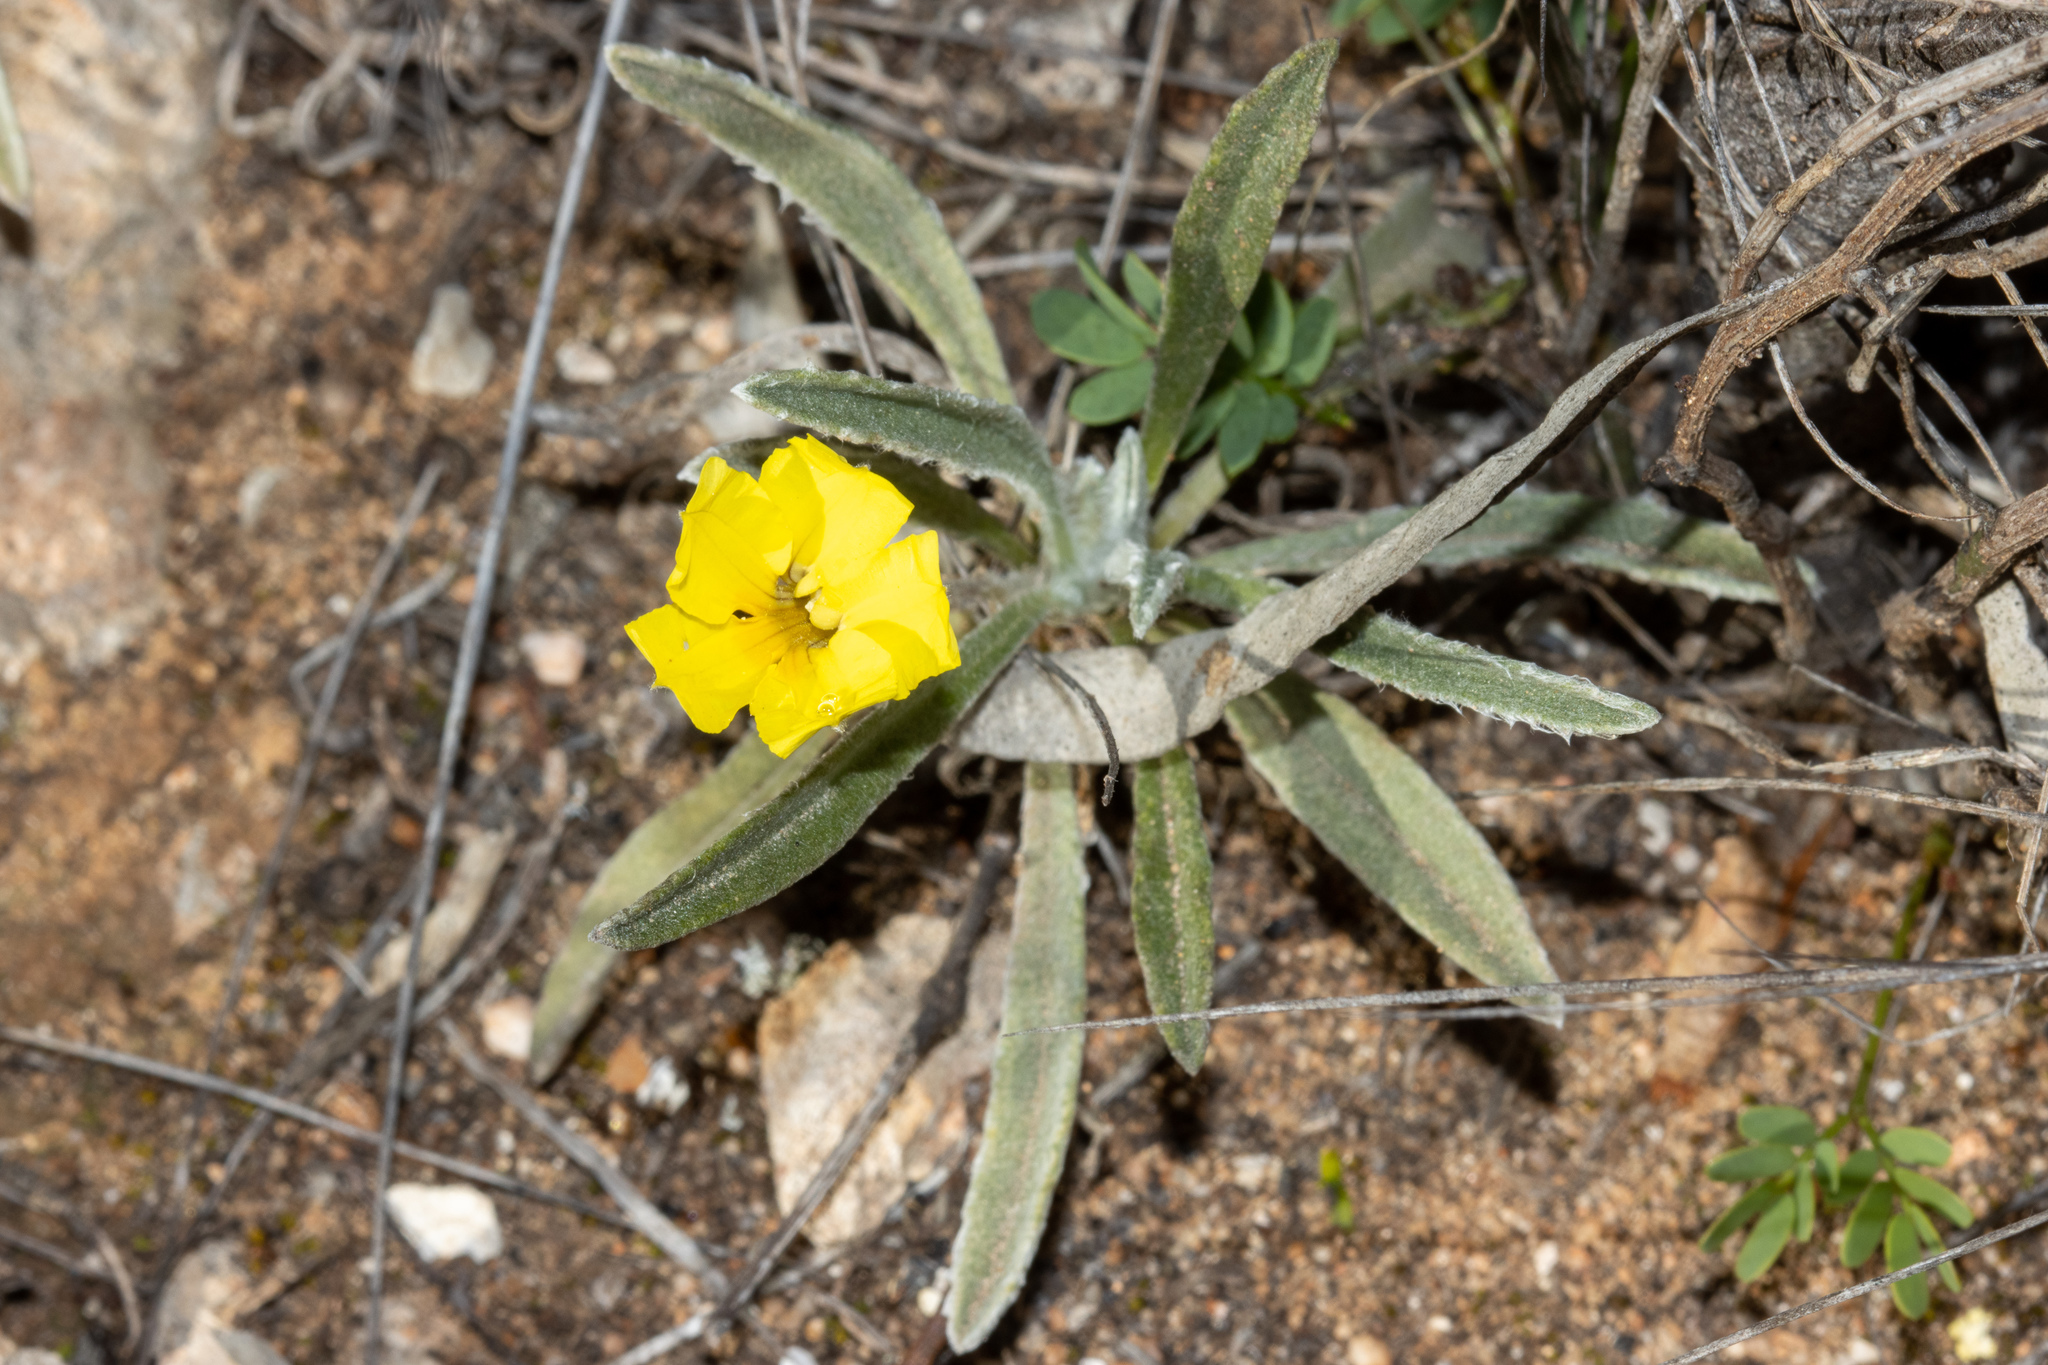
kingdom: Plantae
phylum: Tracheophyta
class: Magnoliopsida
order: Asterales
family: Goodeniaceae
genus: Goodenia
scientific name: Goodenia willisiana
